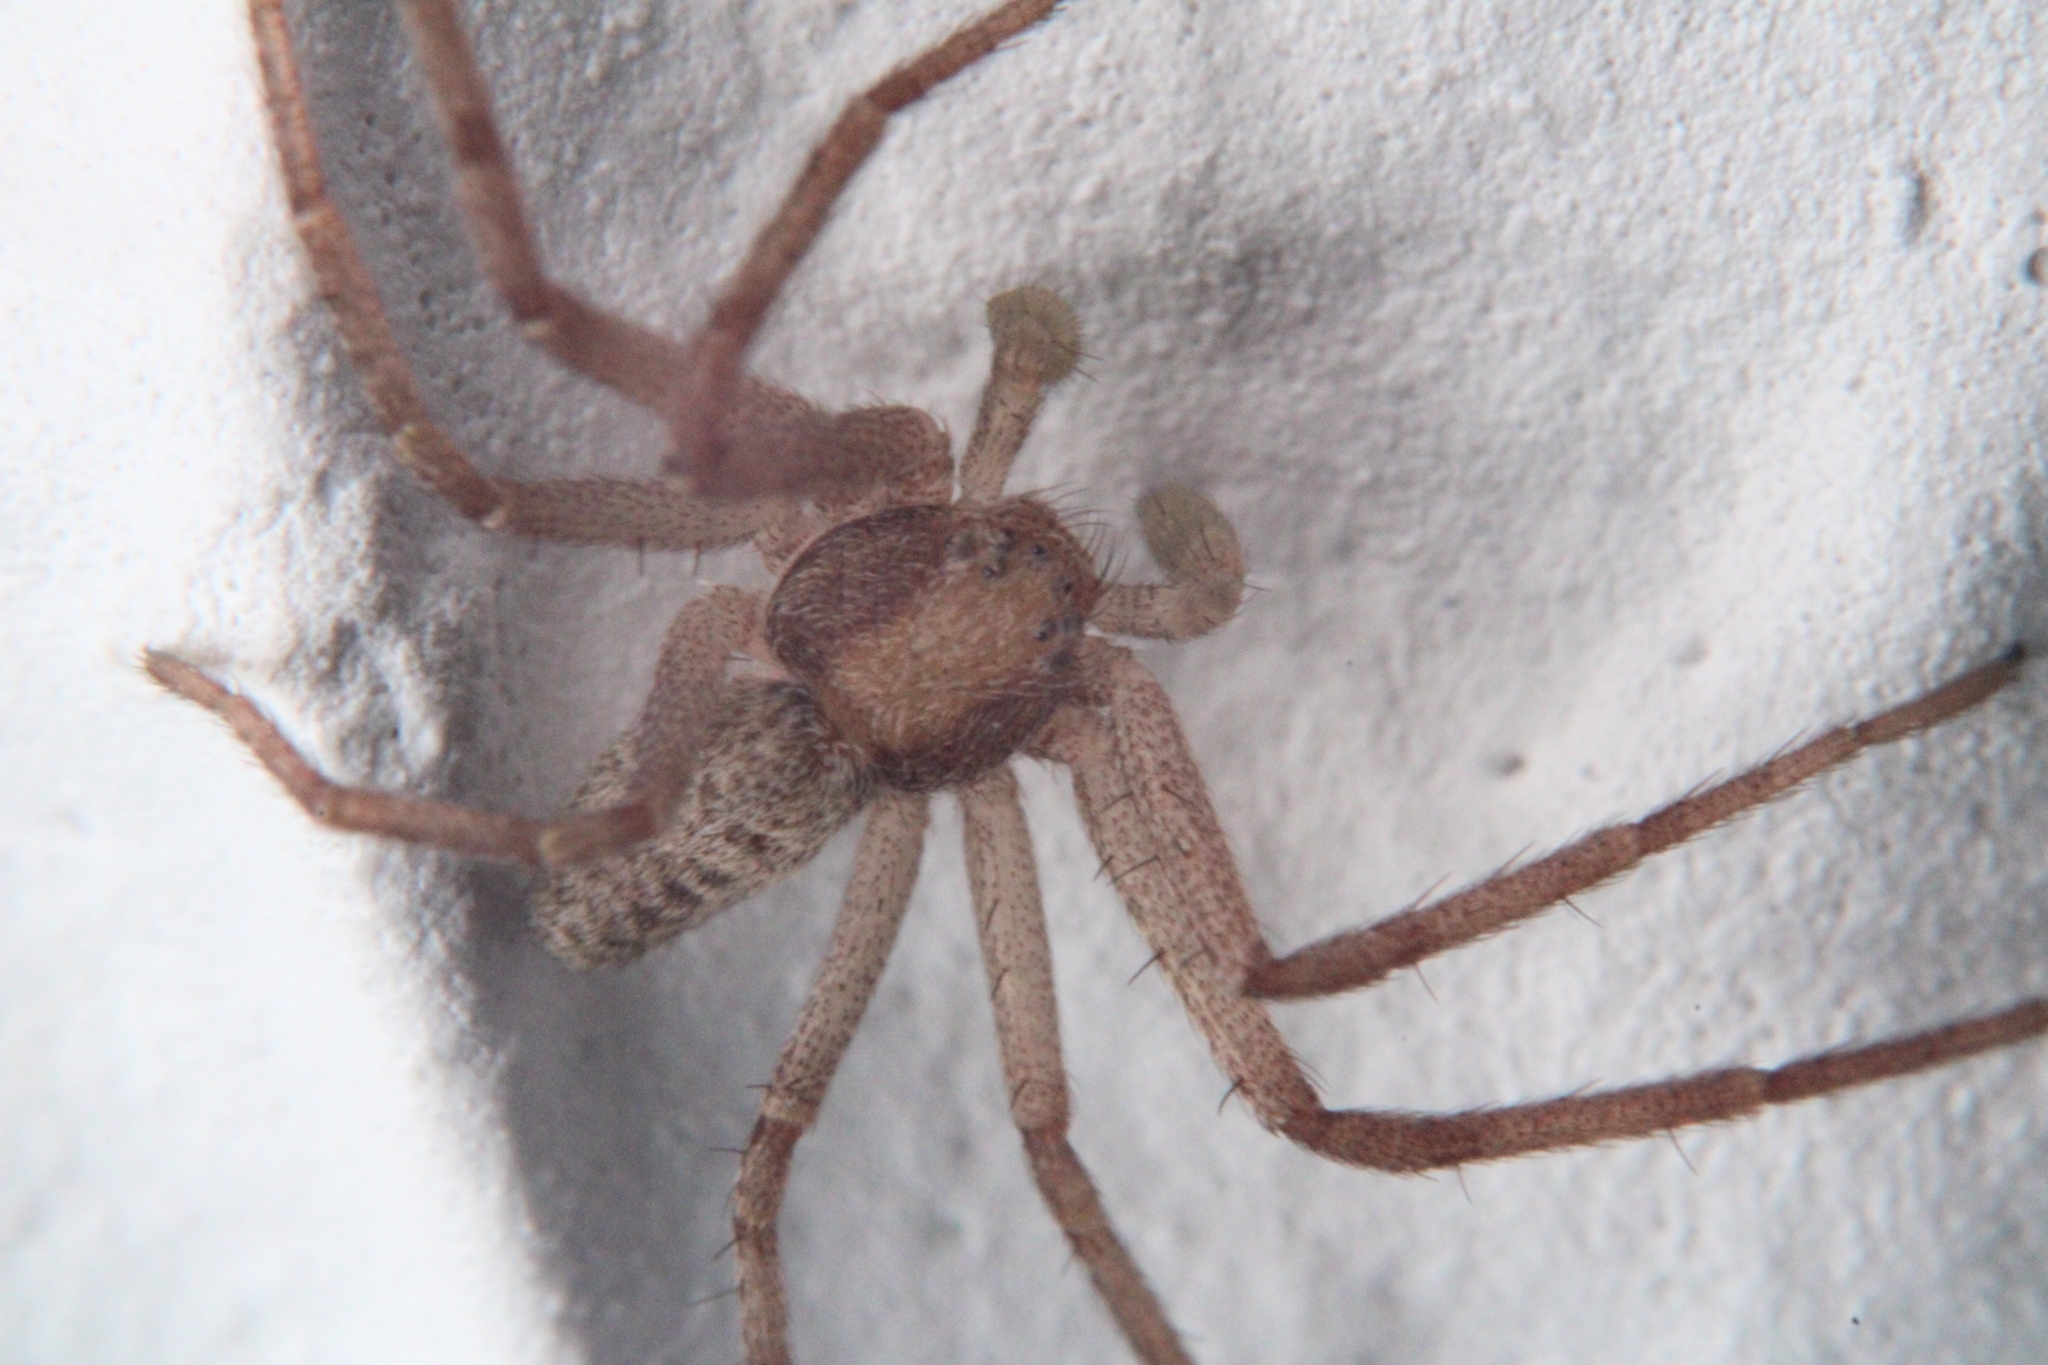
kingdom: Animalia
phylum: Arthropoda
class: Arachnida
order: Araneae
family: Philodromidae
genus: Philodromus
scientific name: Philodromus rufus
